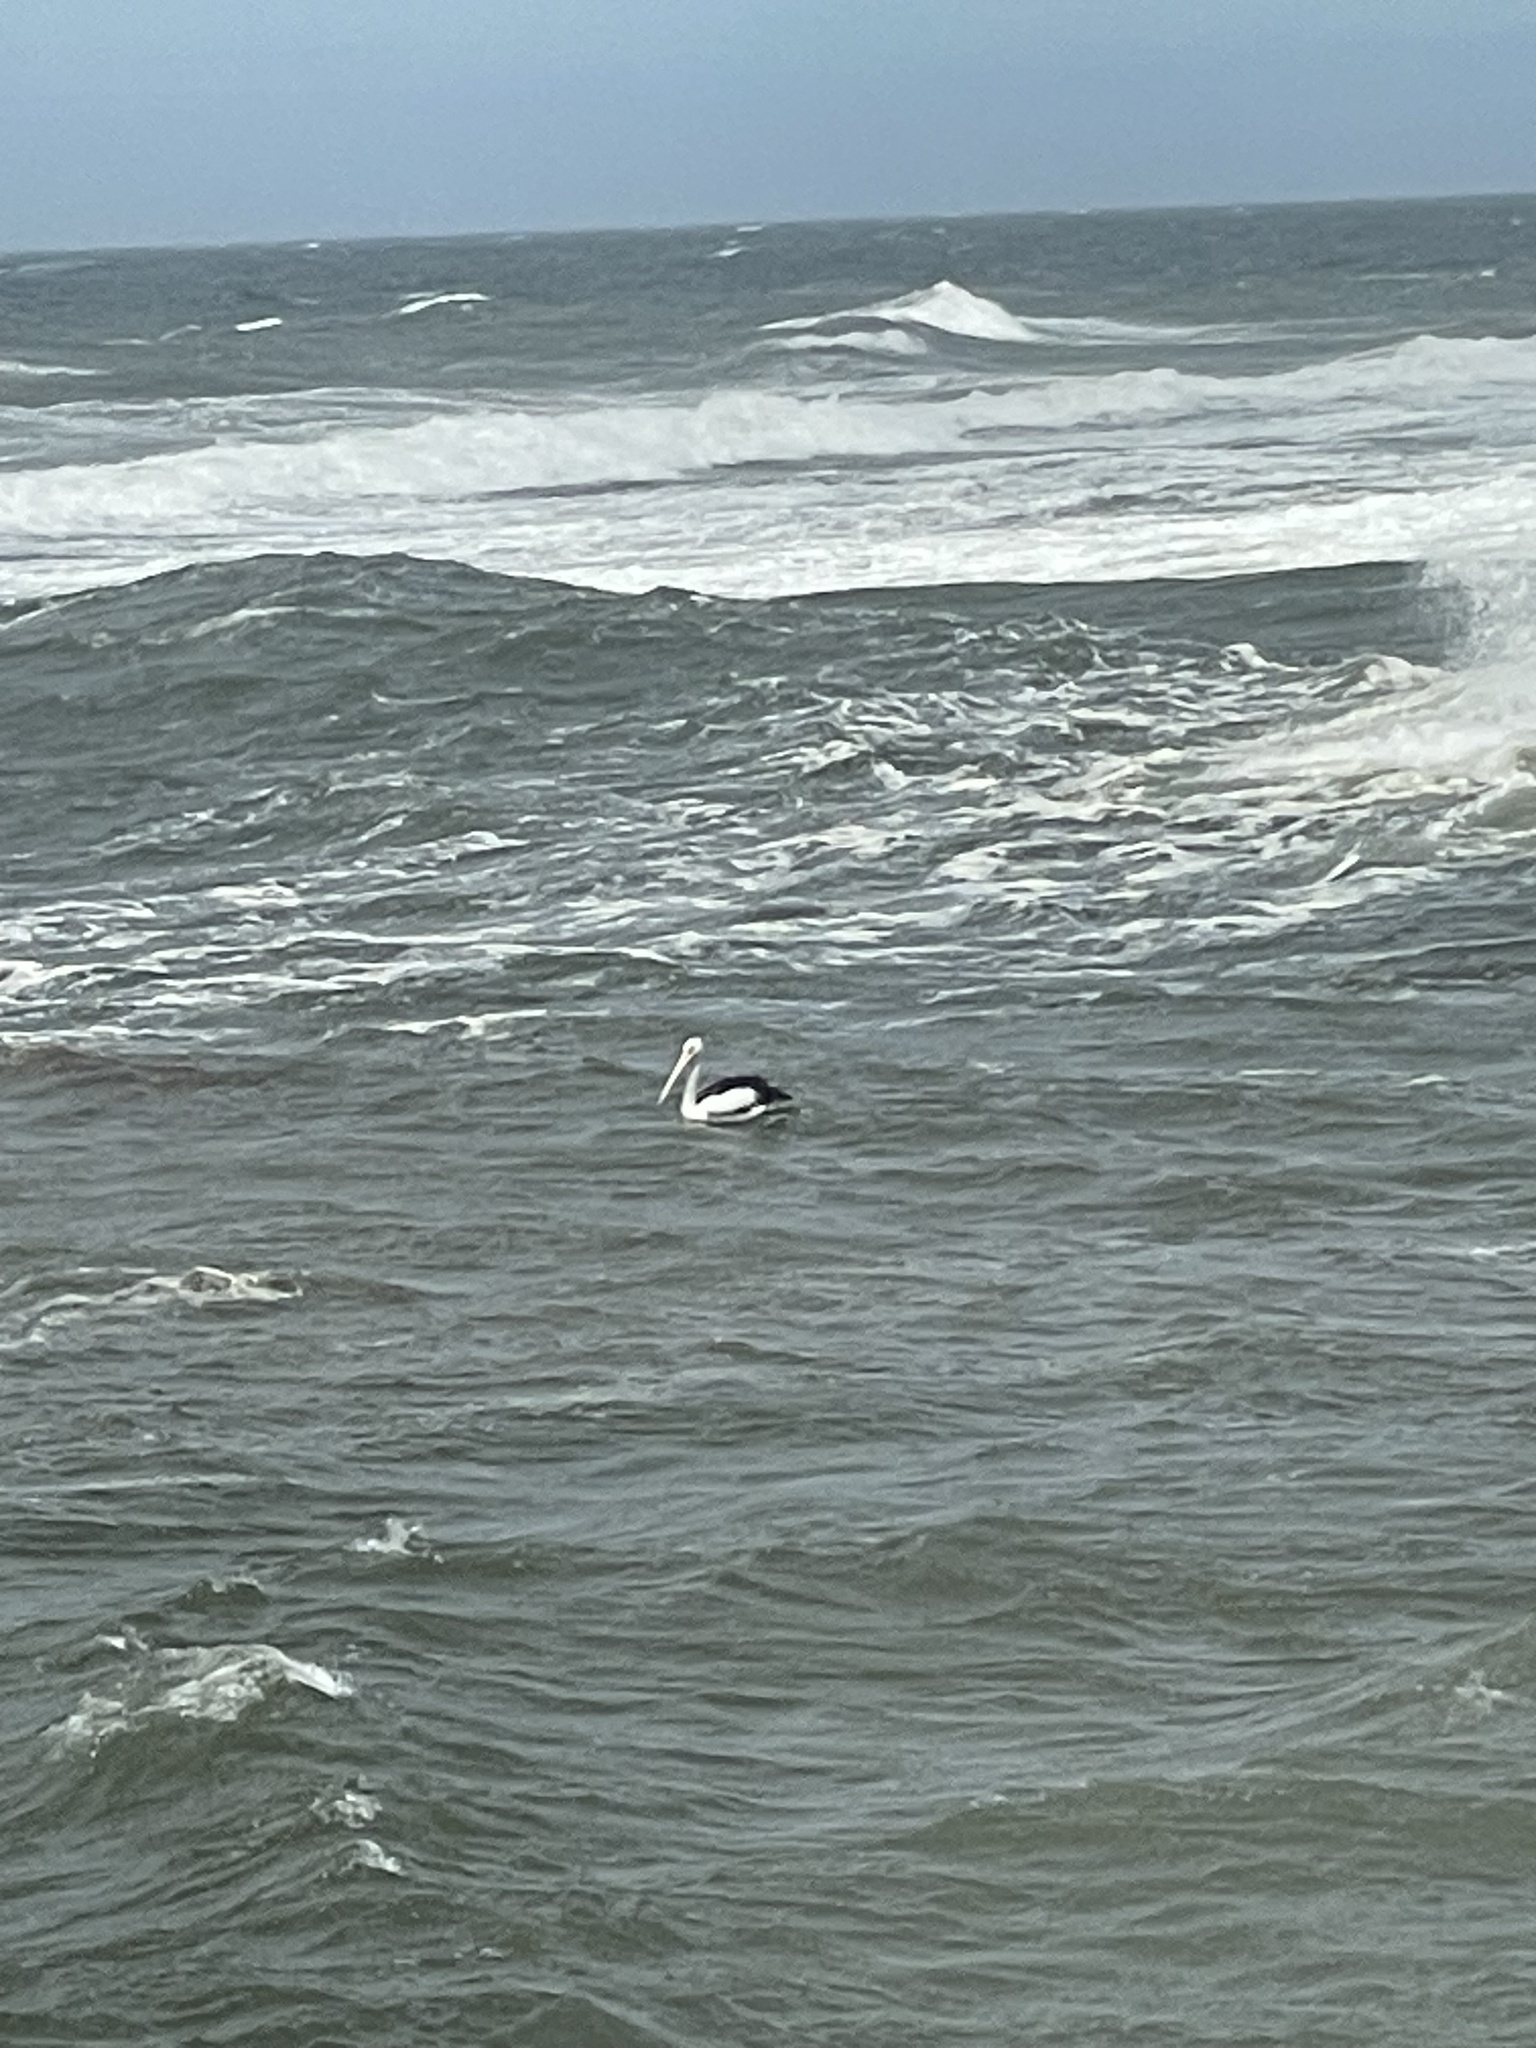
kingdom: Animalia
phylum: Chordata
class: Aves
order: Pelecaniformes
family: Pelecanidae
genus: Pelecanus
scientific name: Pelecanus conspicillatus
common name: Australian pelican
